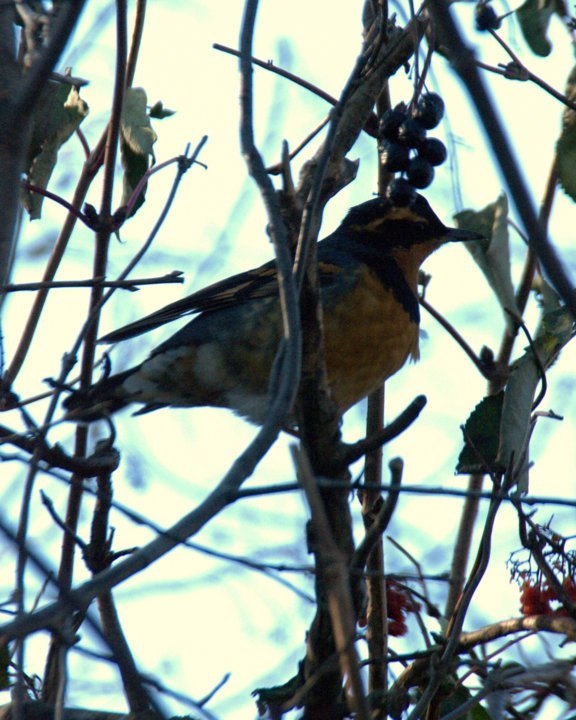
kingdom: Animalia
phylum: Chordata
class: Aves
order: Passeriformes
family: Turdidae
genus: Ixoreus
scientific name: Ixoreus naevius
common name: Varied thrush
